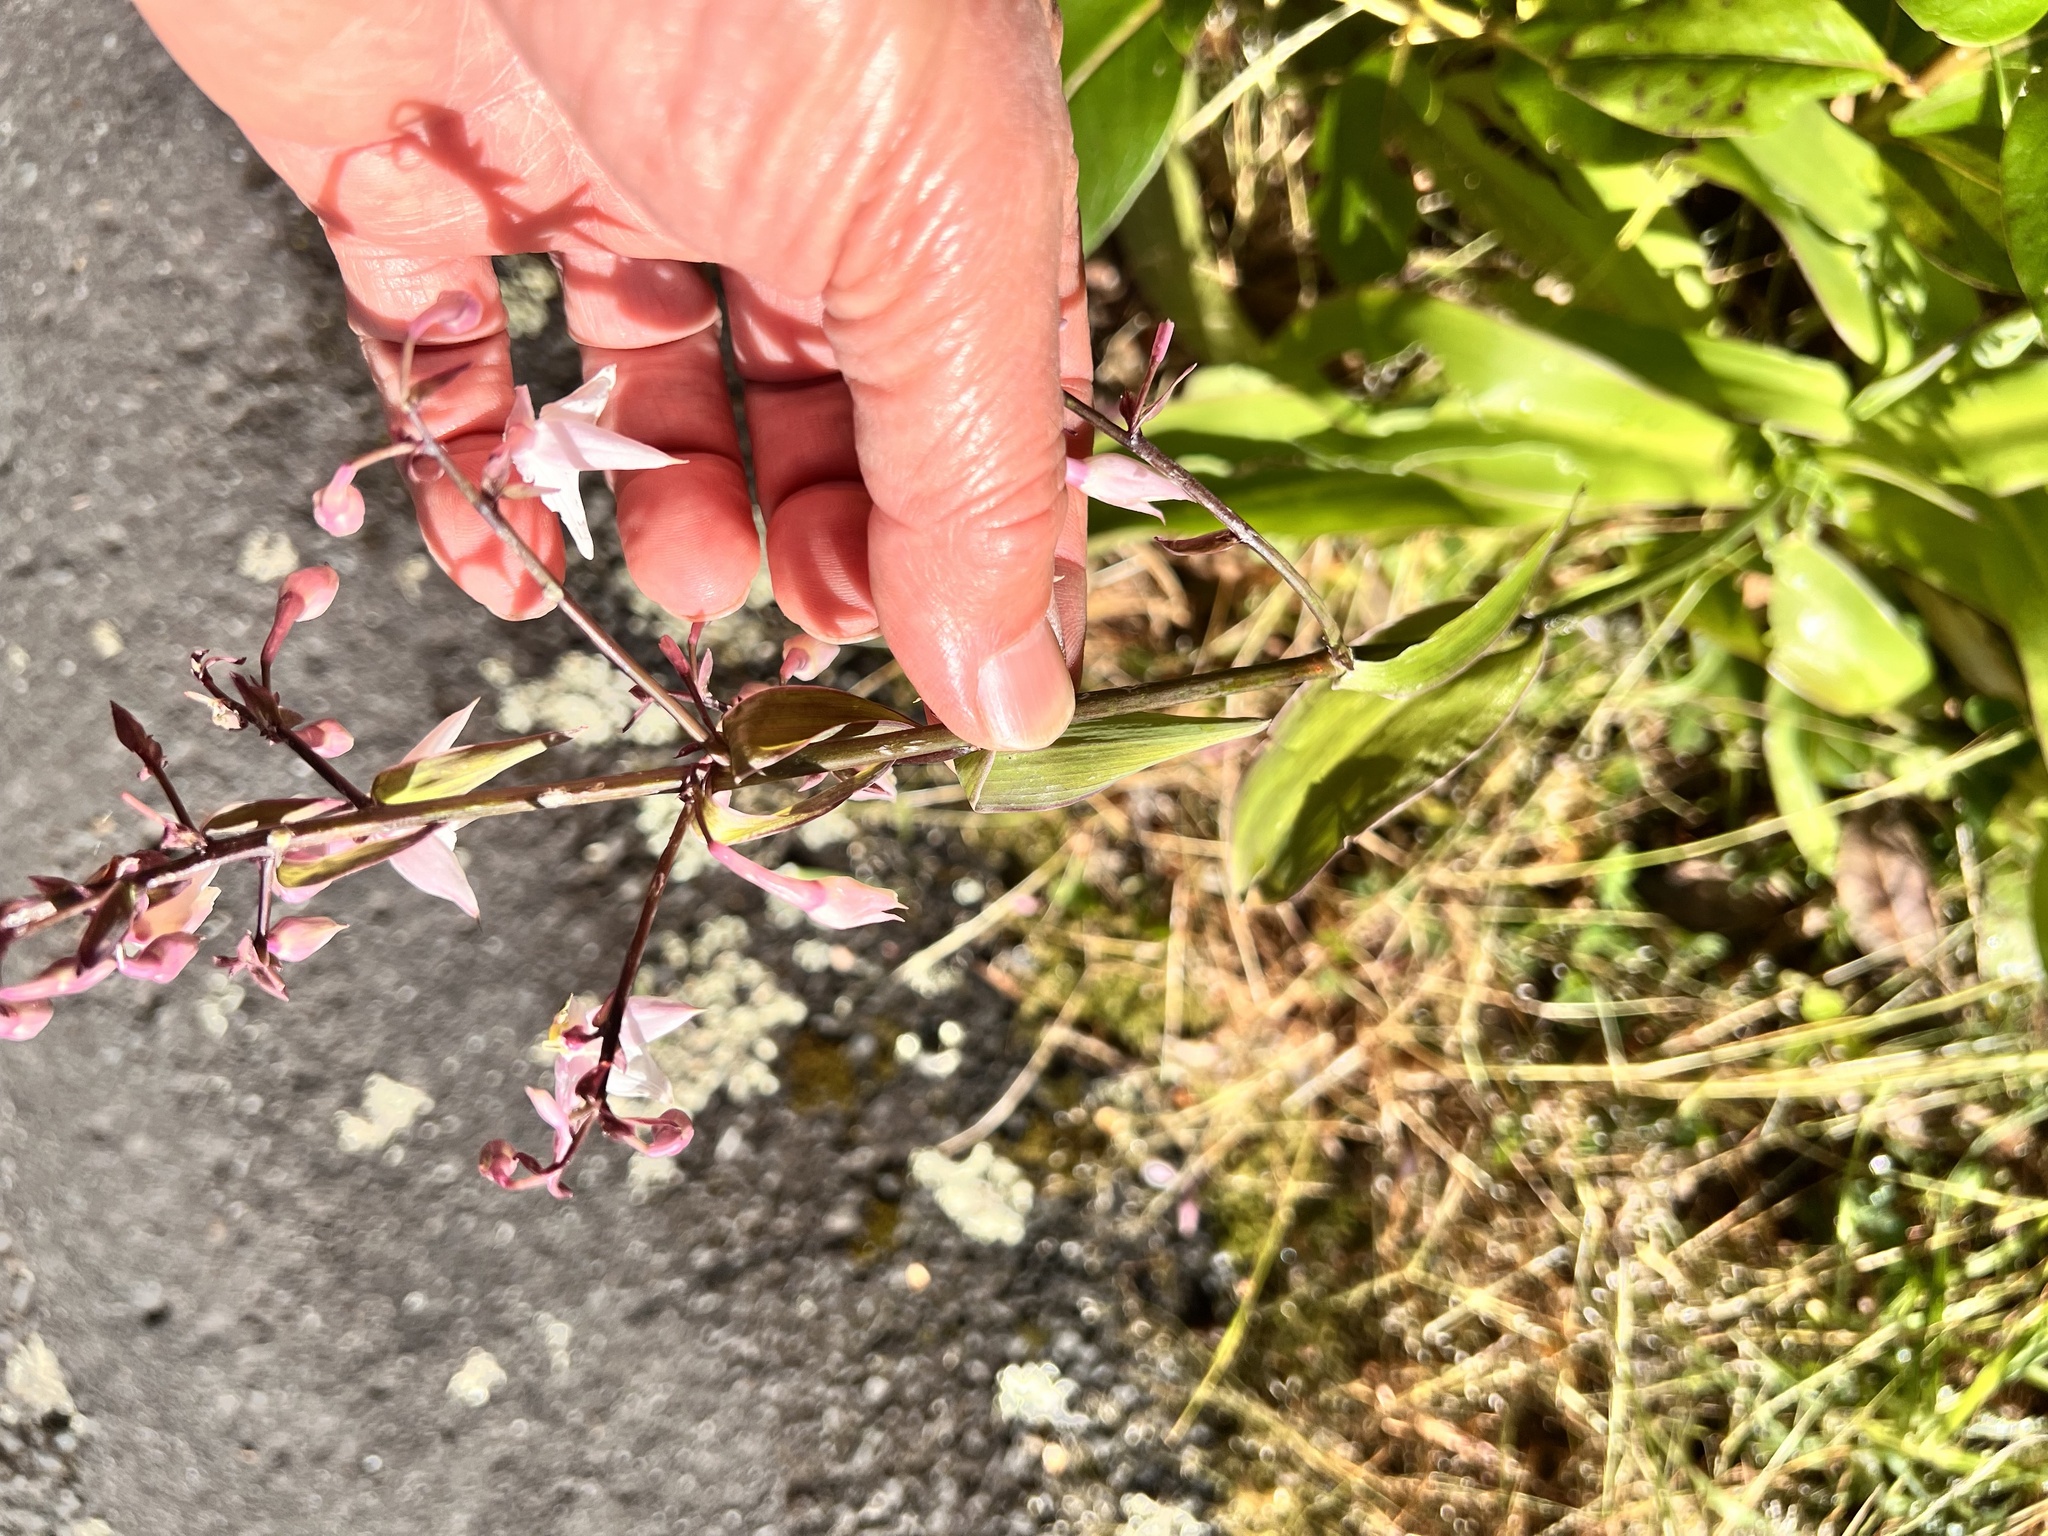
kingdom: Plantae
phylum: Tracheophyta
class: Liliopsida
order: Asparagales
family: Asparagaceae
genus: Arthropodium
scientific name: Arthropodium cirratum
